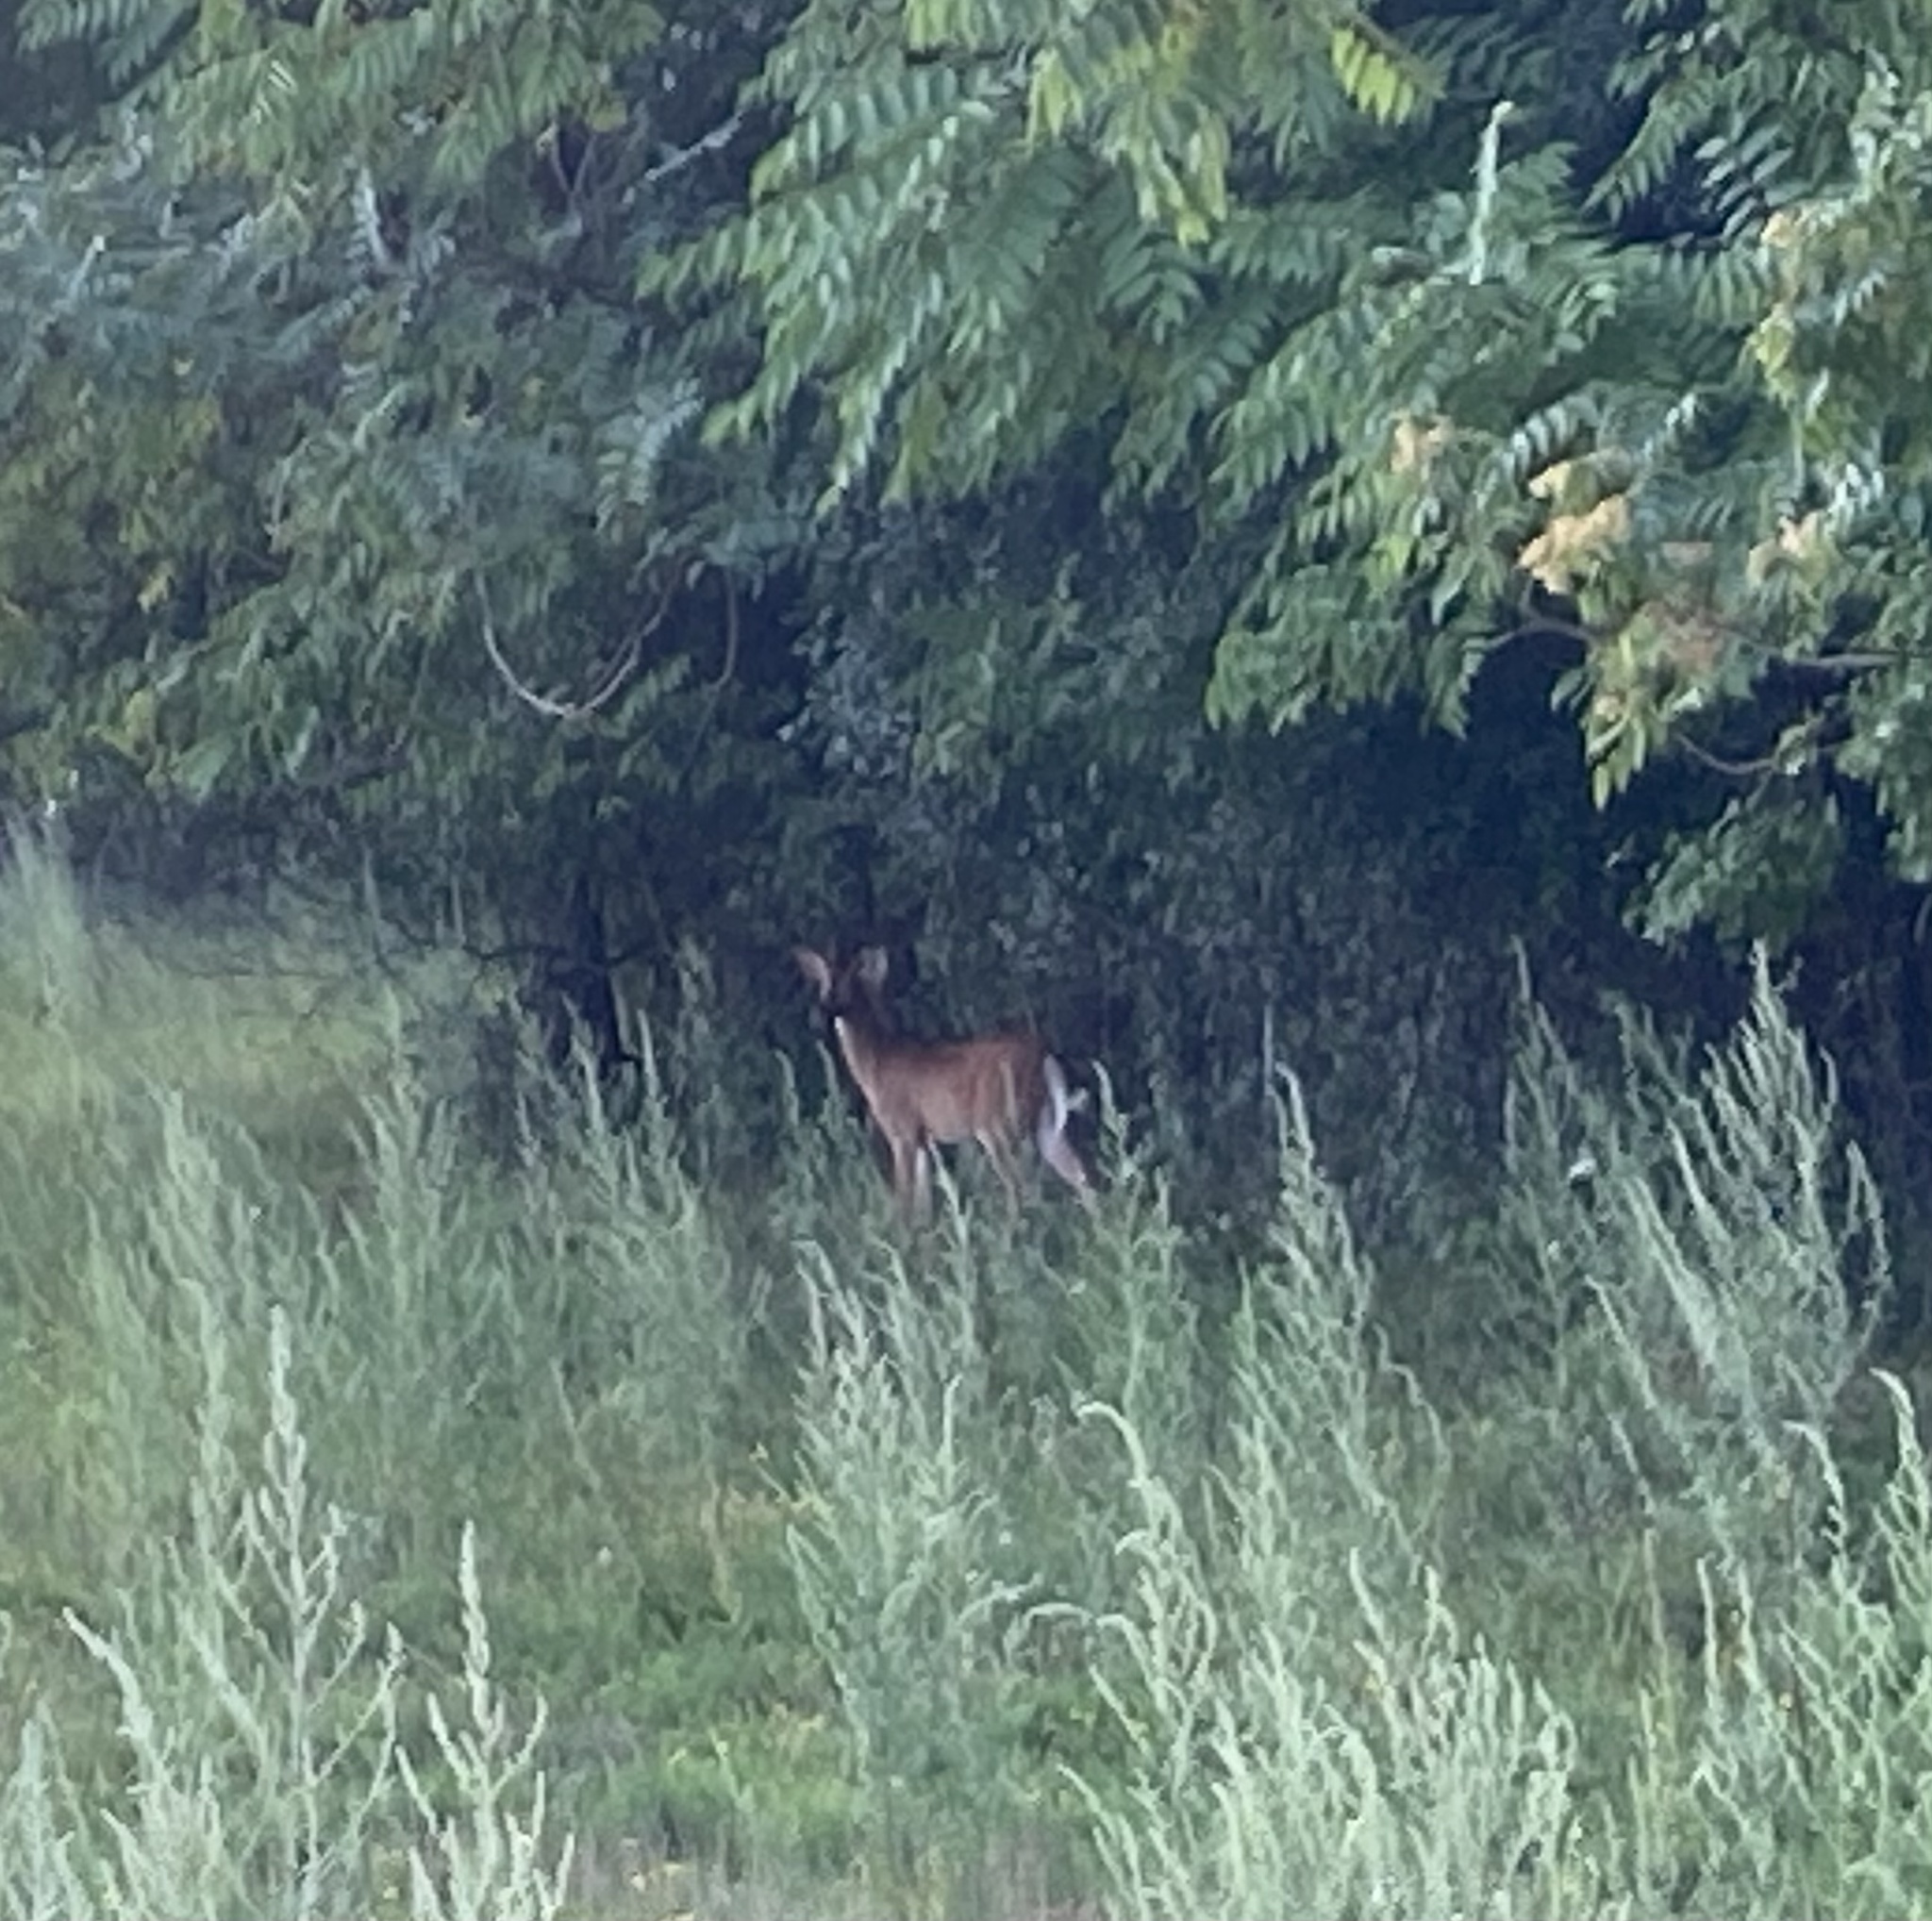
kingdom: Animalia
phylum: Chordata
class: Mammalia
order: Artiodactyla
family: Cervidae
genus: Odocoileus
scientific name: Odocoileus virginianus
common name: White-tailed deer
